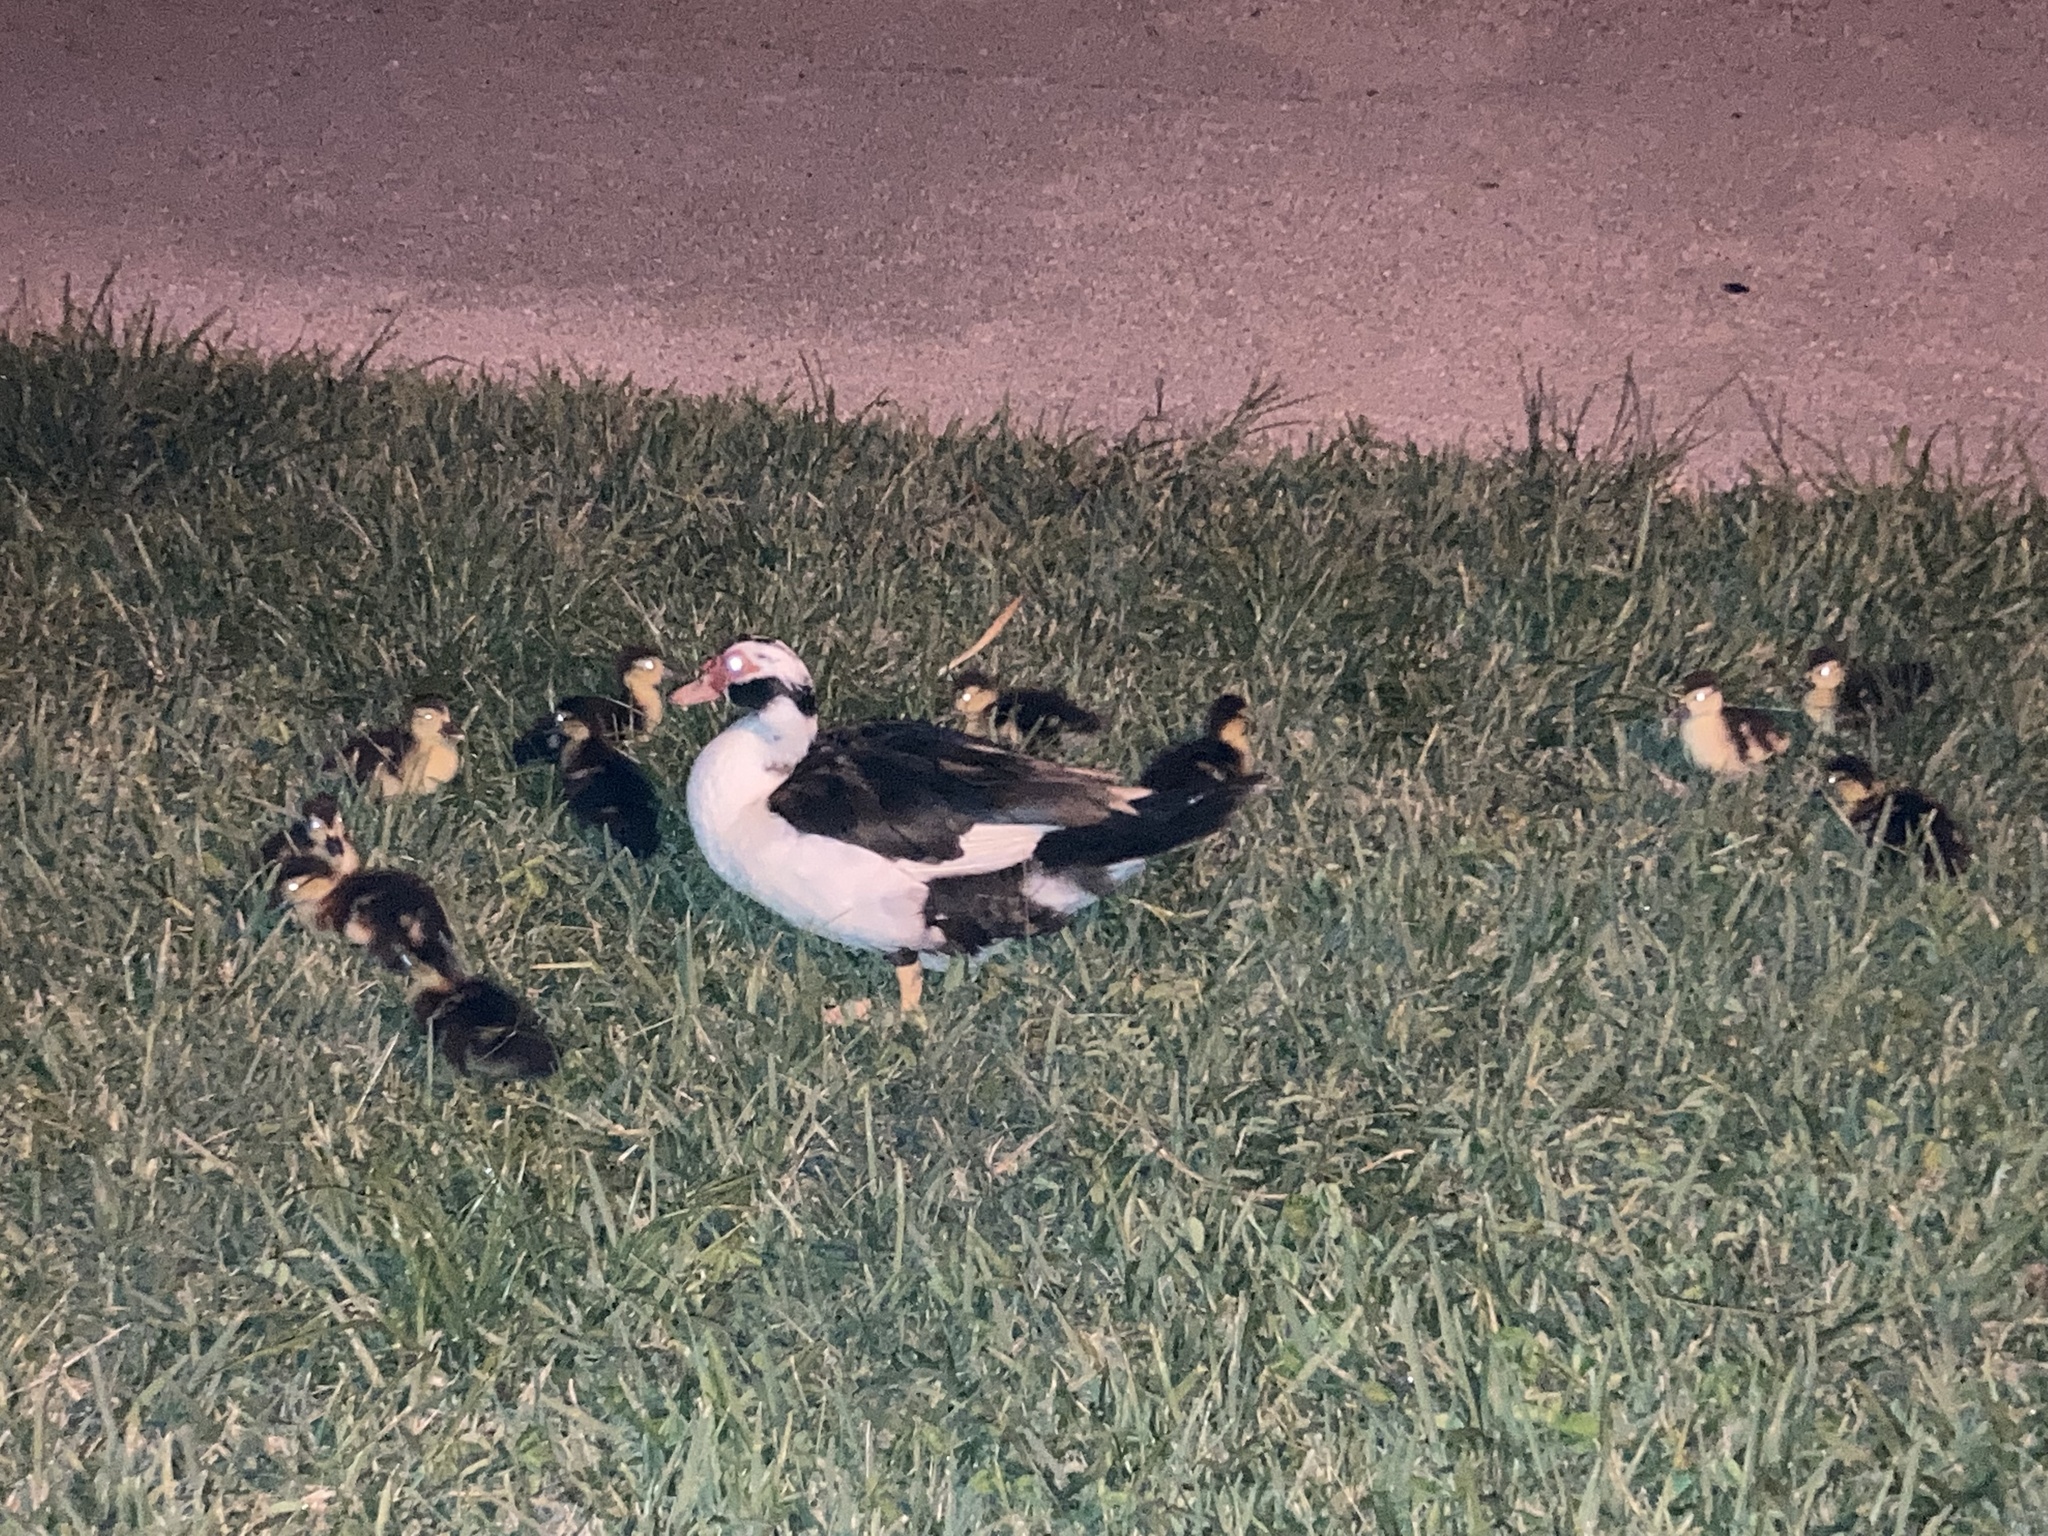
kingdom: Animalia
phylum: Chordata
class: Aves
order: Anseriformes
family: Anatidae
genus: Cairina
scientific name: Cairina moschata
